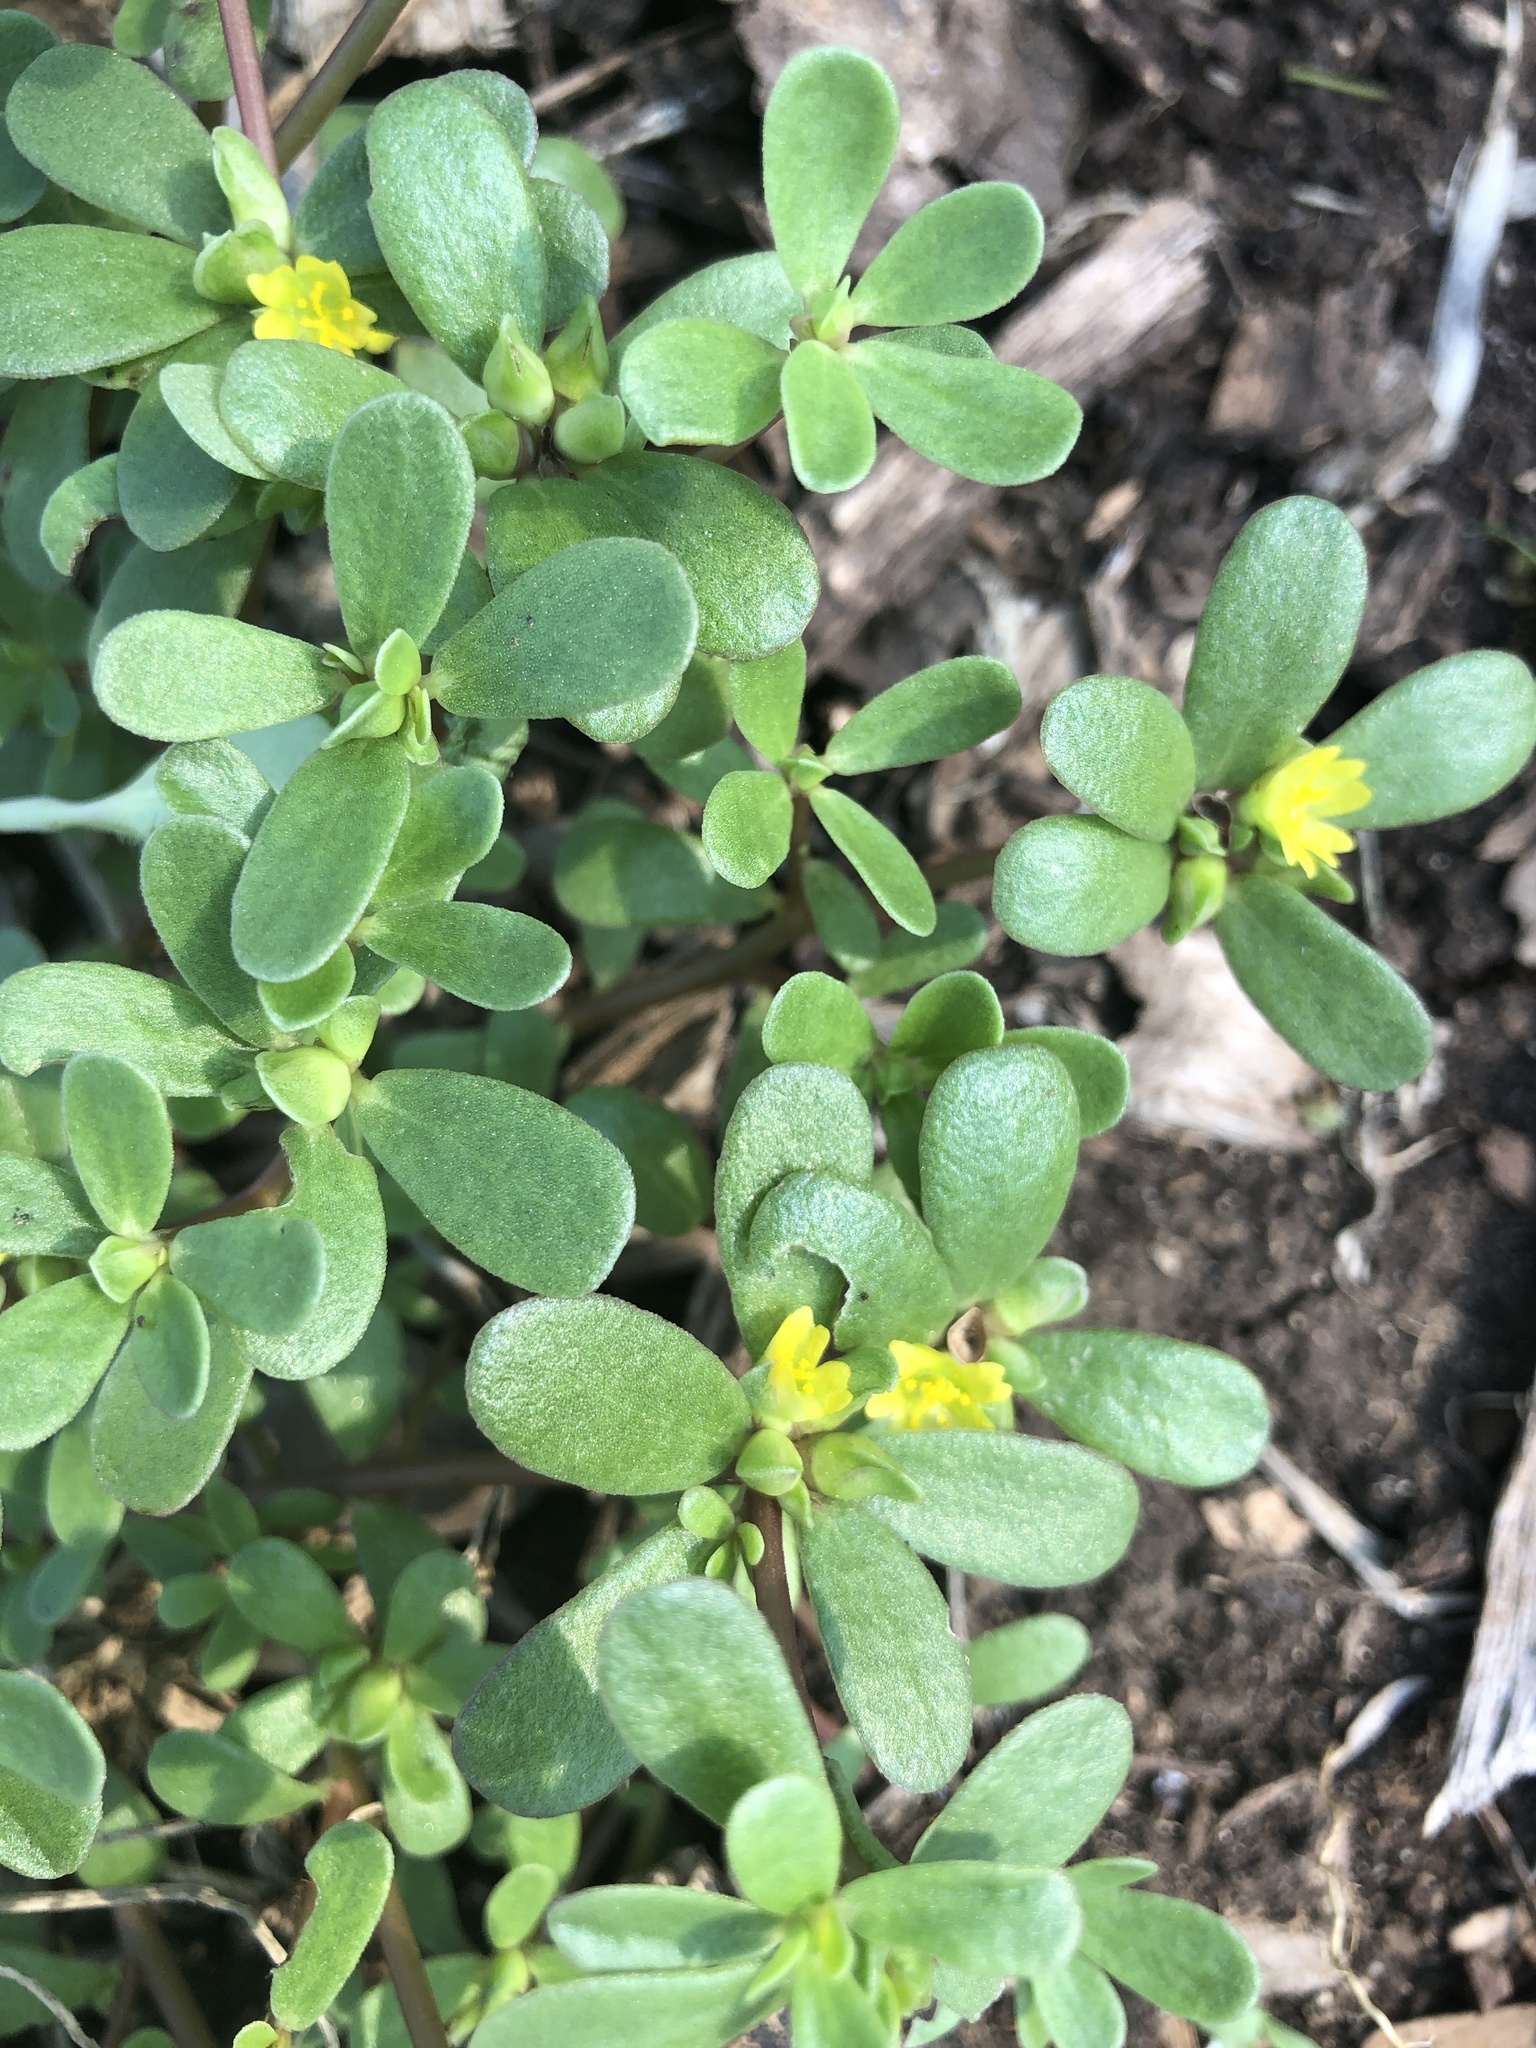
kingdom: Plantae
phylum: Tracheophyta
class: Magnoliopsida
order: Caryophyllales
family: Portulacaceae
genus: Portulaca
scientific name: Portulaca oleracea
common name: Common purslane
